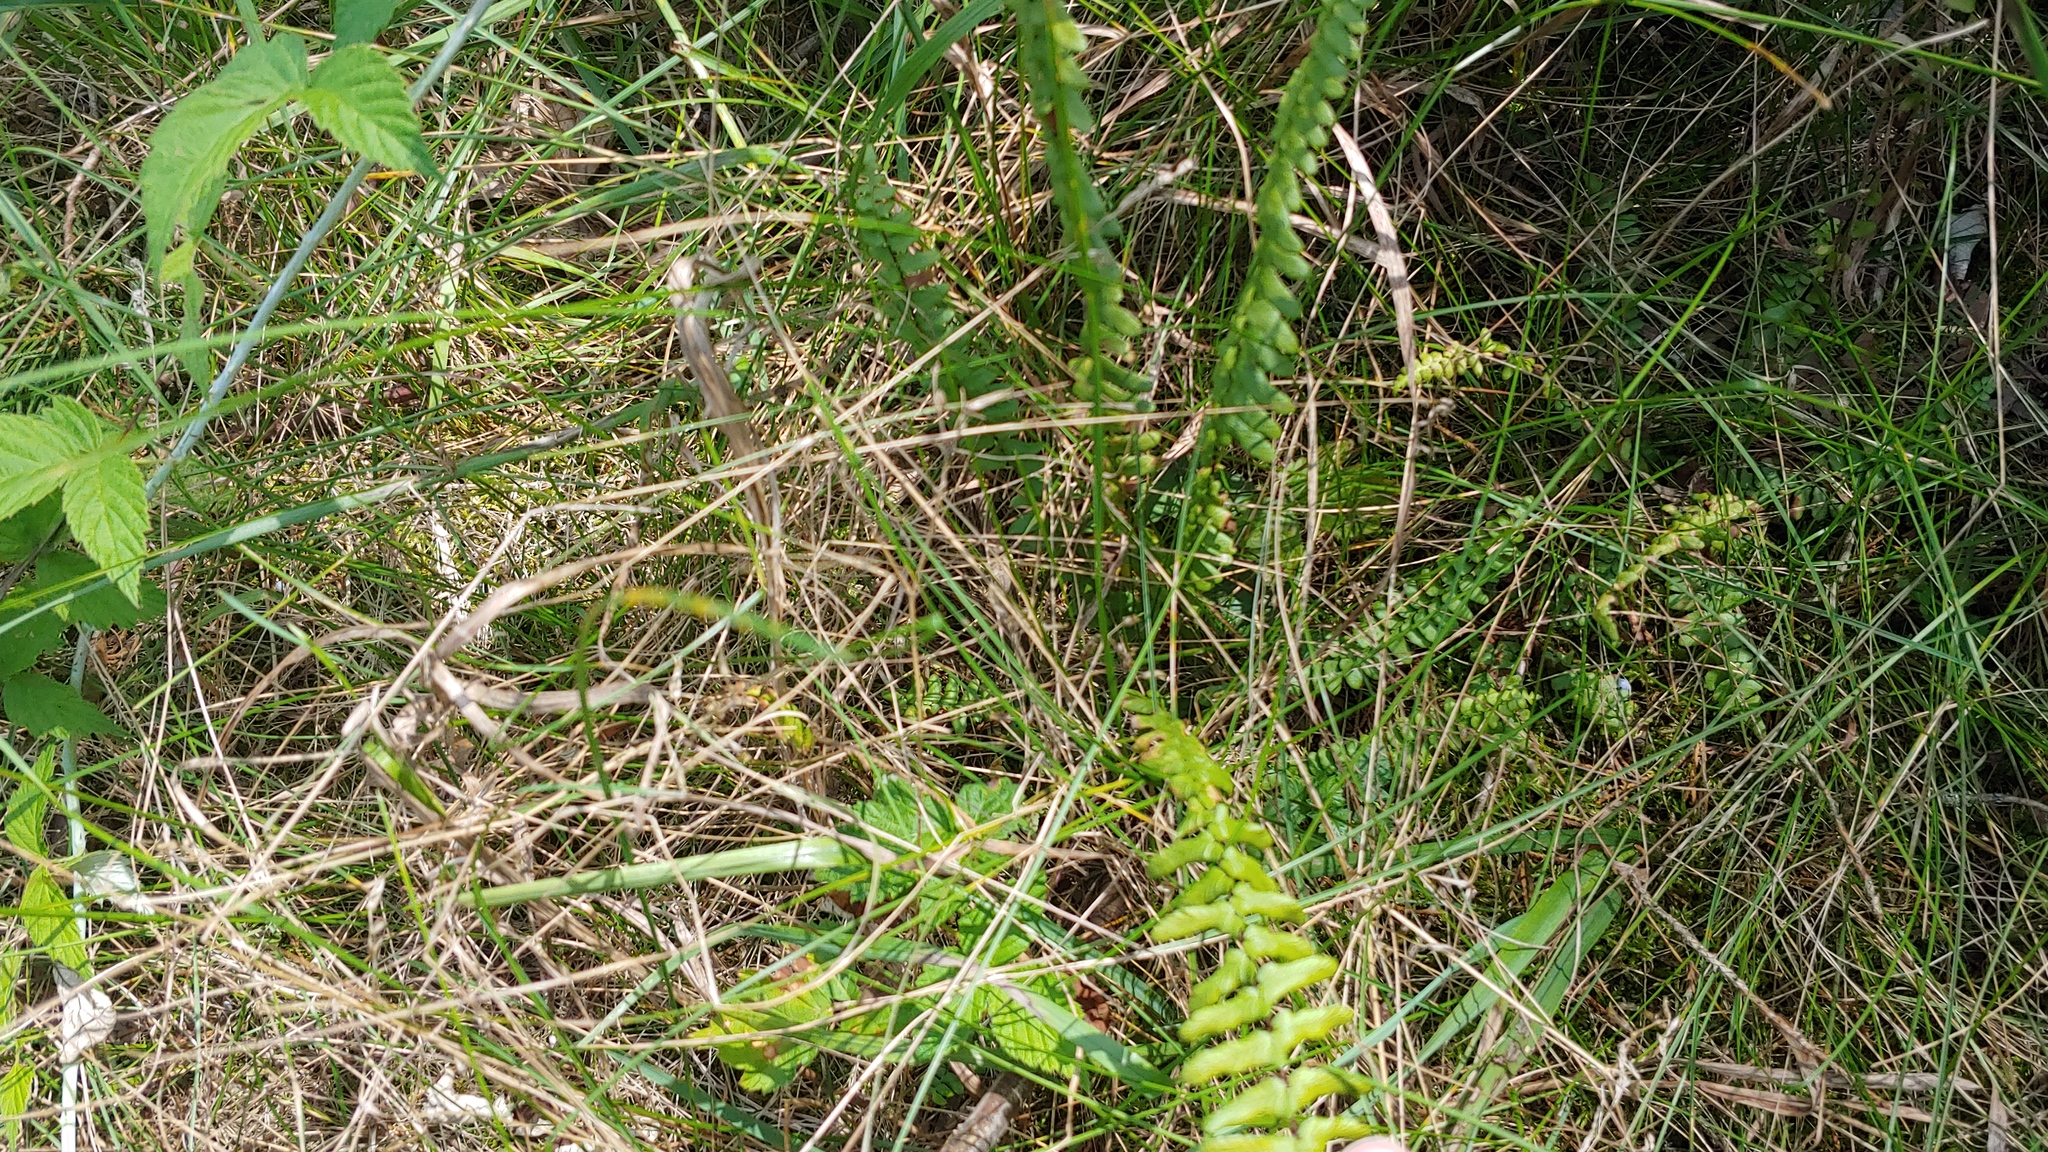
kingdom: Plantae
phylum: Tracheophyta
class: Polypodiopsida
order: Polypodiales
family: Aspleniaceae
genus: Asplenium
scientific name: Asplenium platyneuron
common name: Ebony spleenwort
